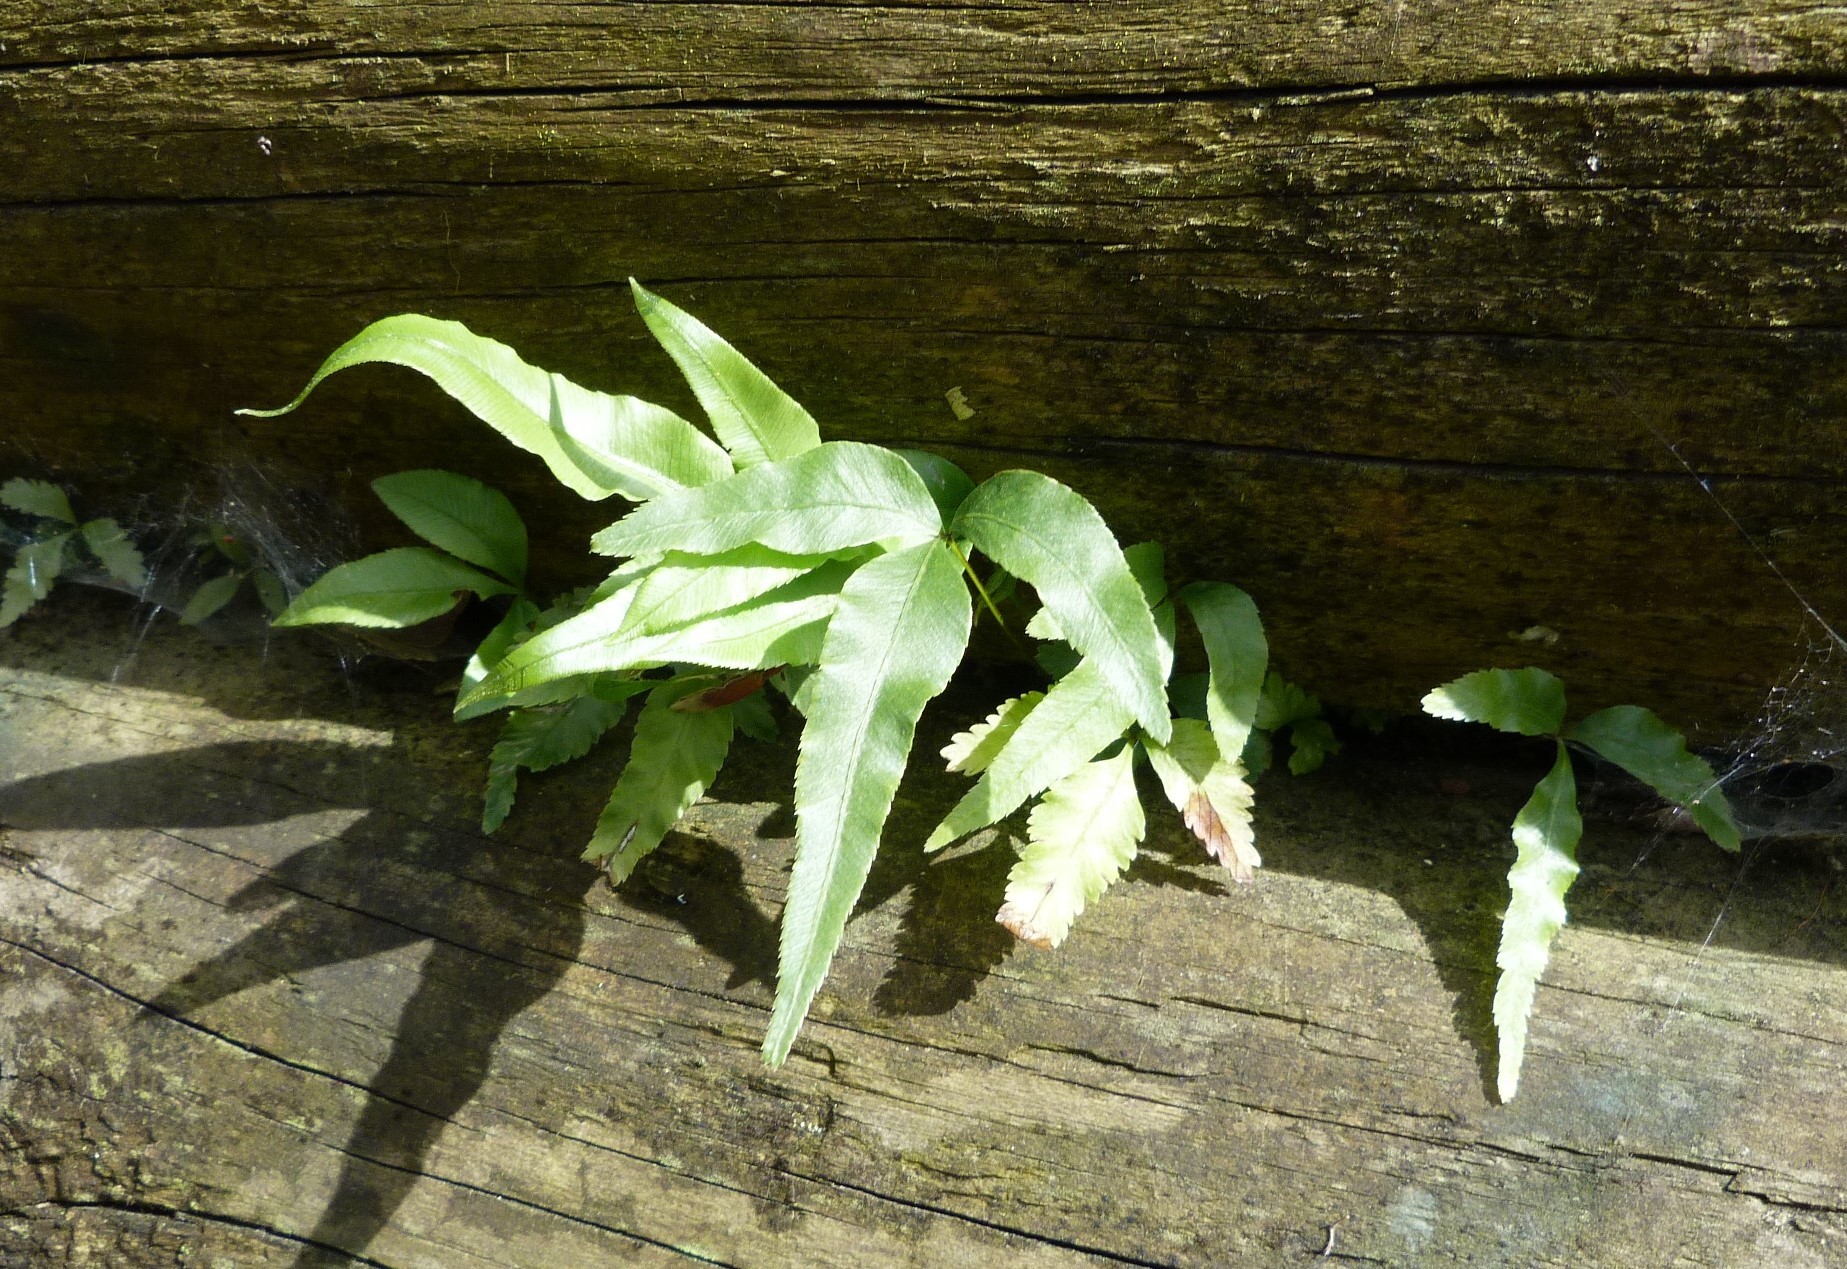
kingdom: Plantae
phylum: Tracheophyta
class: Polypodiopsida
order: Polypodiales
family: Pteridaceae
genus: Pteris
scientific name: Pteris cretica
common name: Ribbon fern
